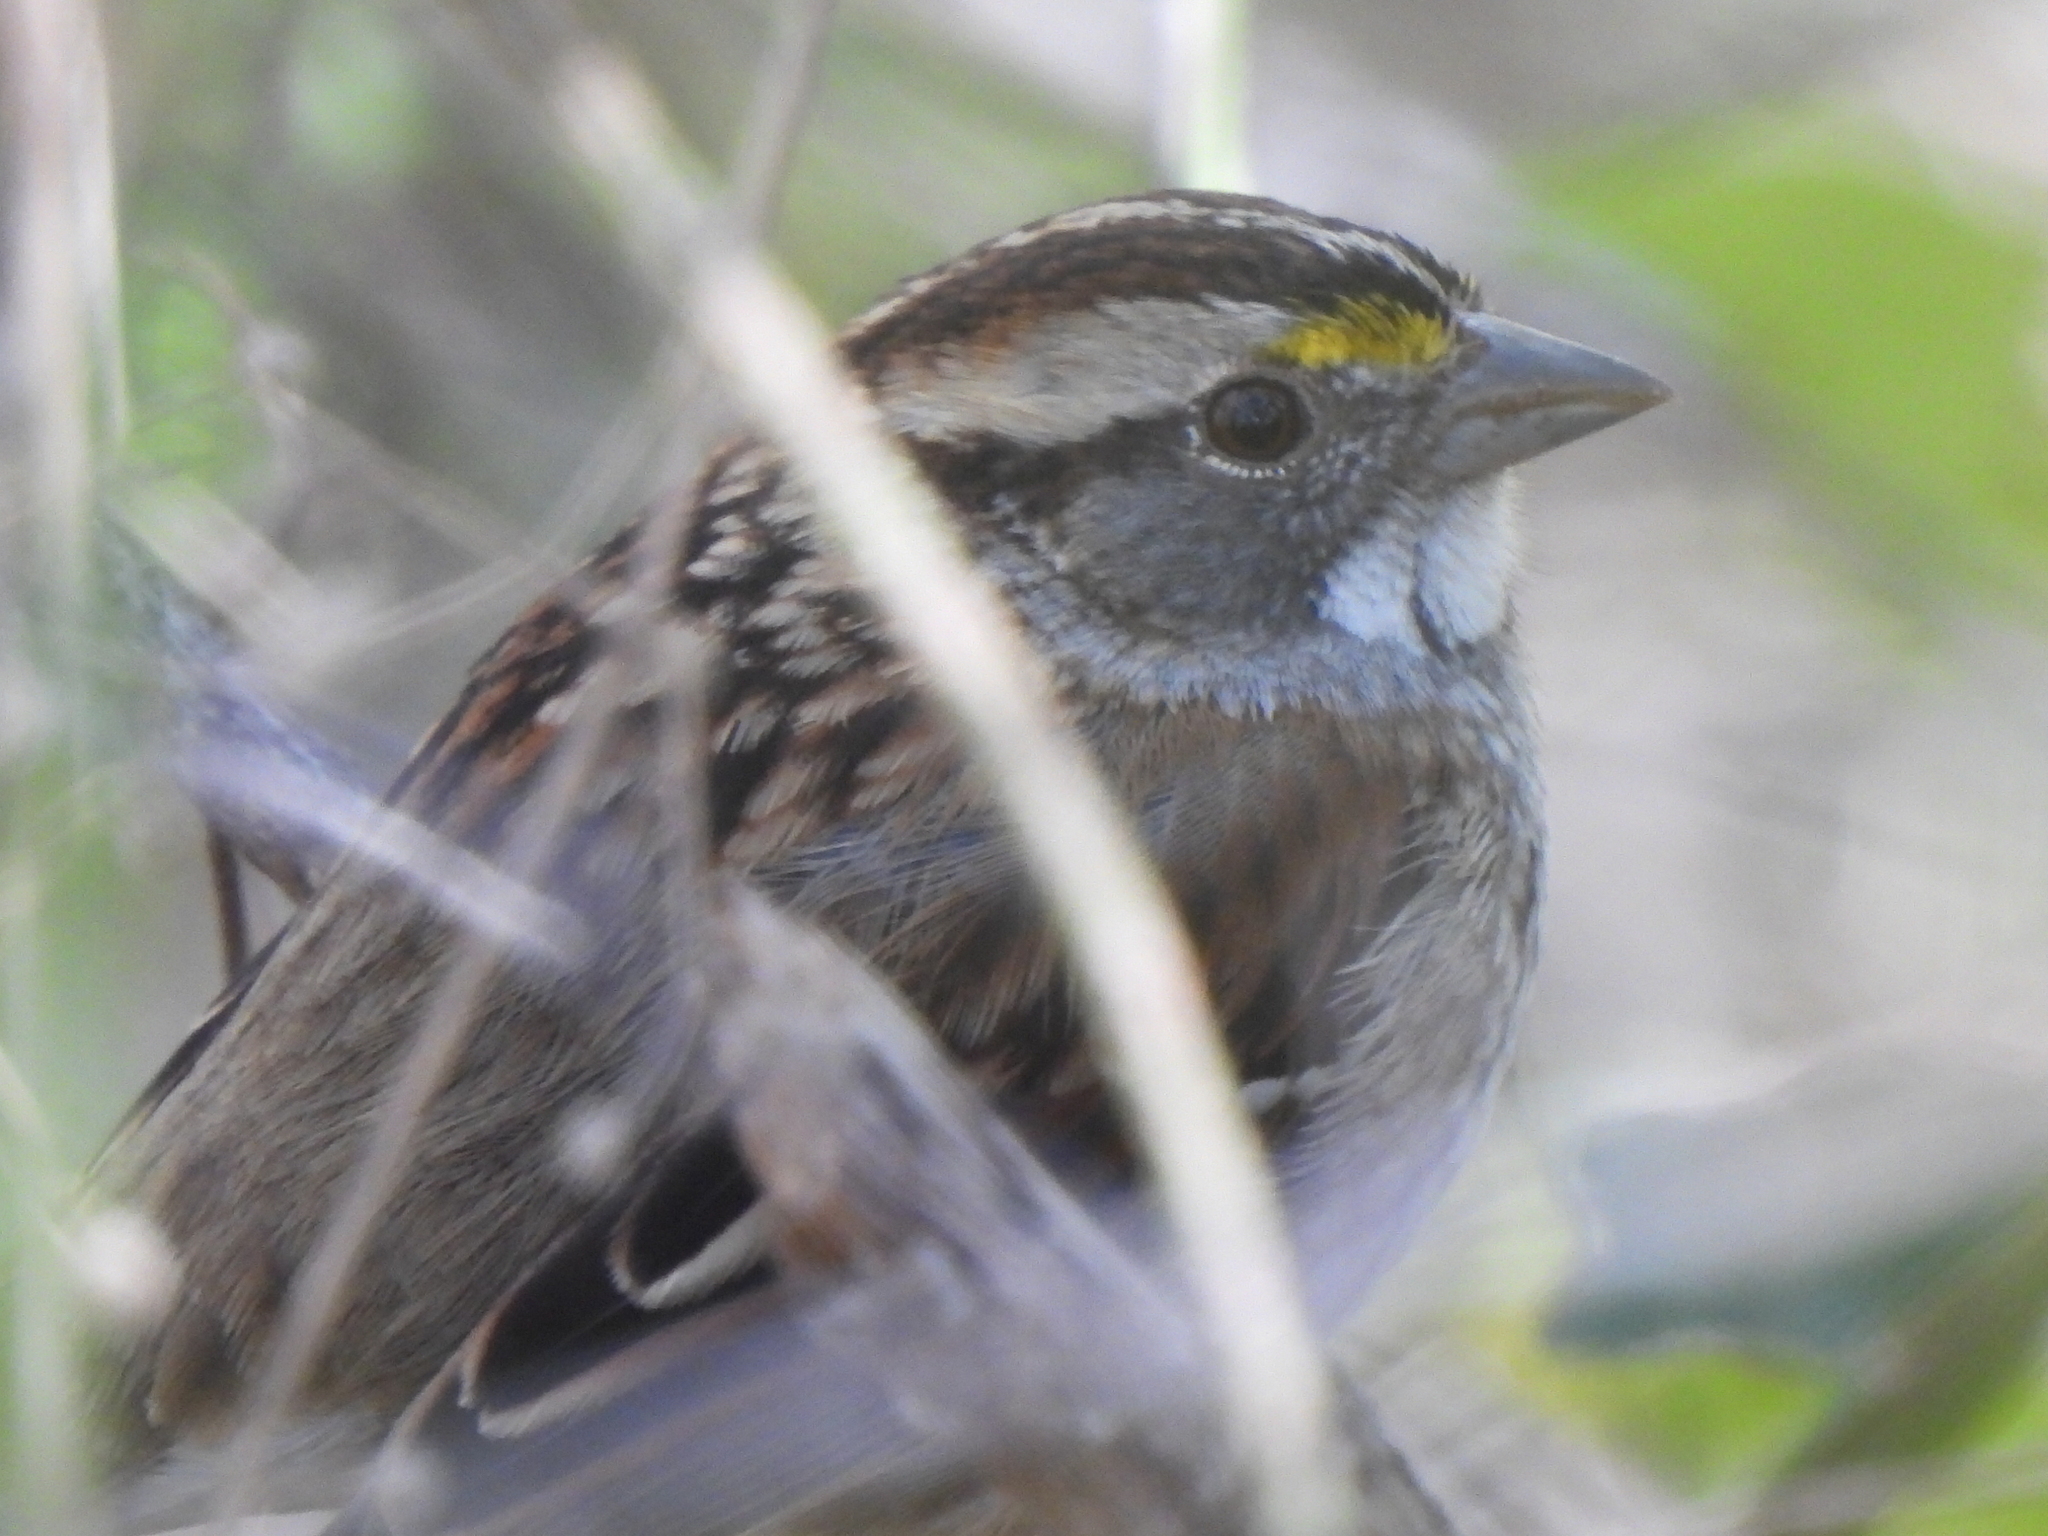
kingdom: Animalia
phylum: Chordata
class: Aves
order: Passeriformes
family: Passerellidae
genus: Zonotrichia
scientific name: Zonotrichia albicollis
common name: White-throated sparrow
